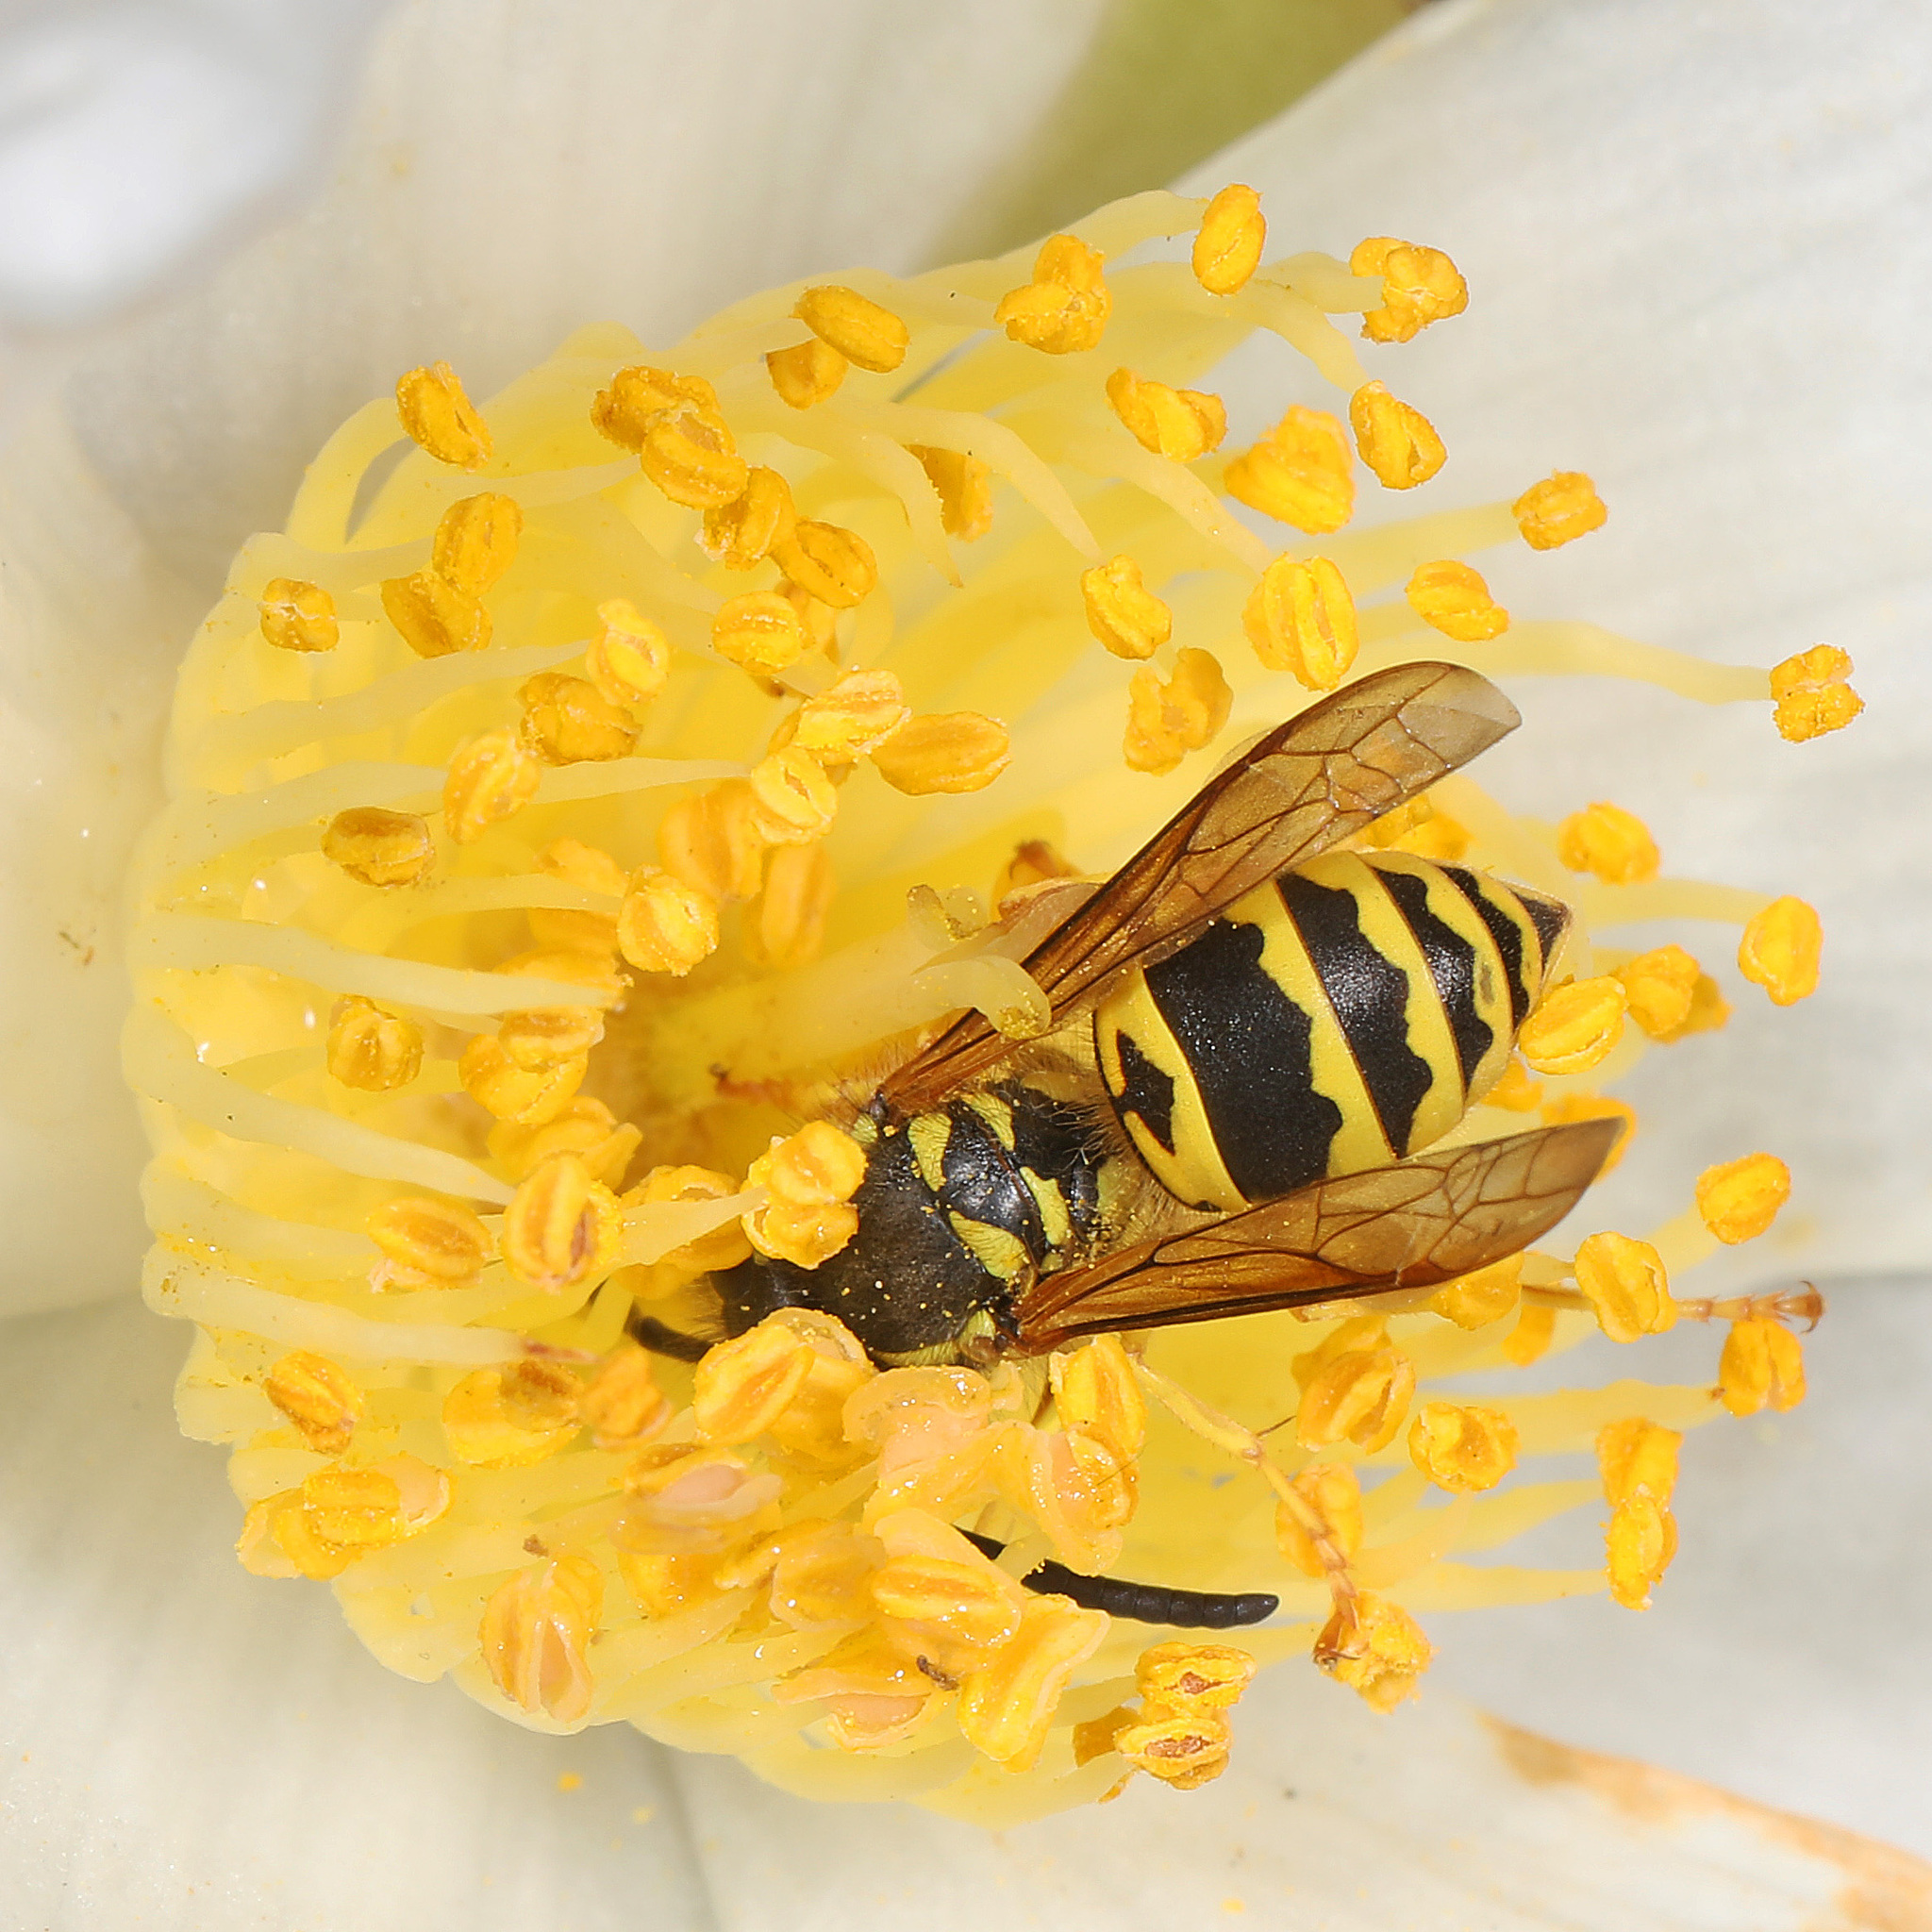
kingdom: Animalia
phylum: Arthropoda
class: Insecta
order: Hymenoptera
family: Vespidae
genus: Vespula
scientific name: Vespula maculifrons
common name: Eastern yellowjacket
